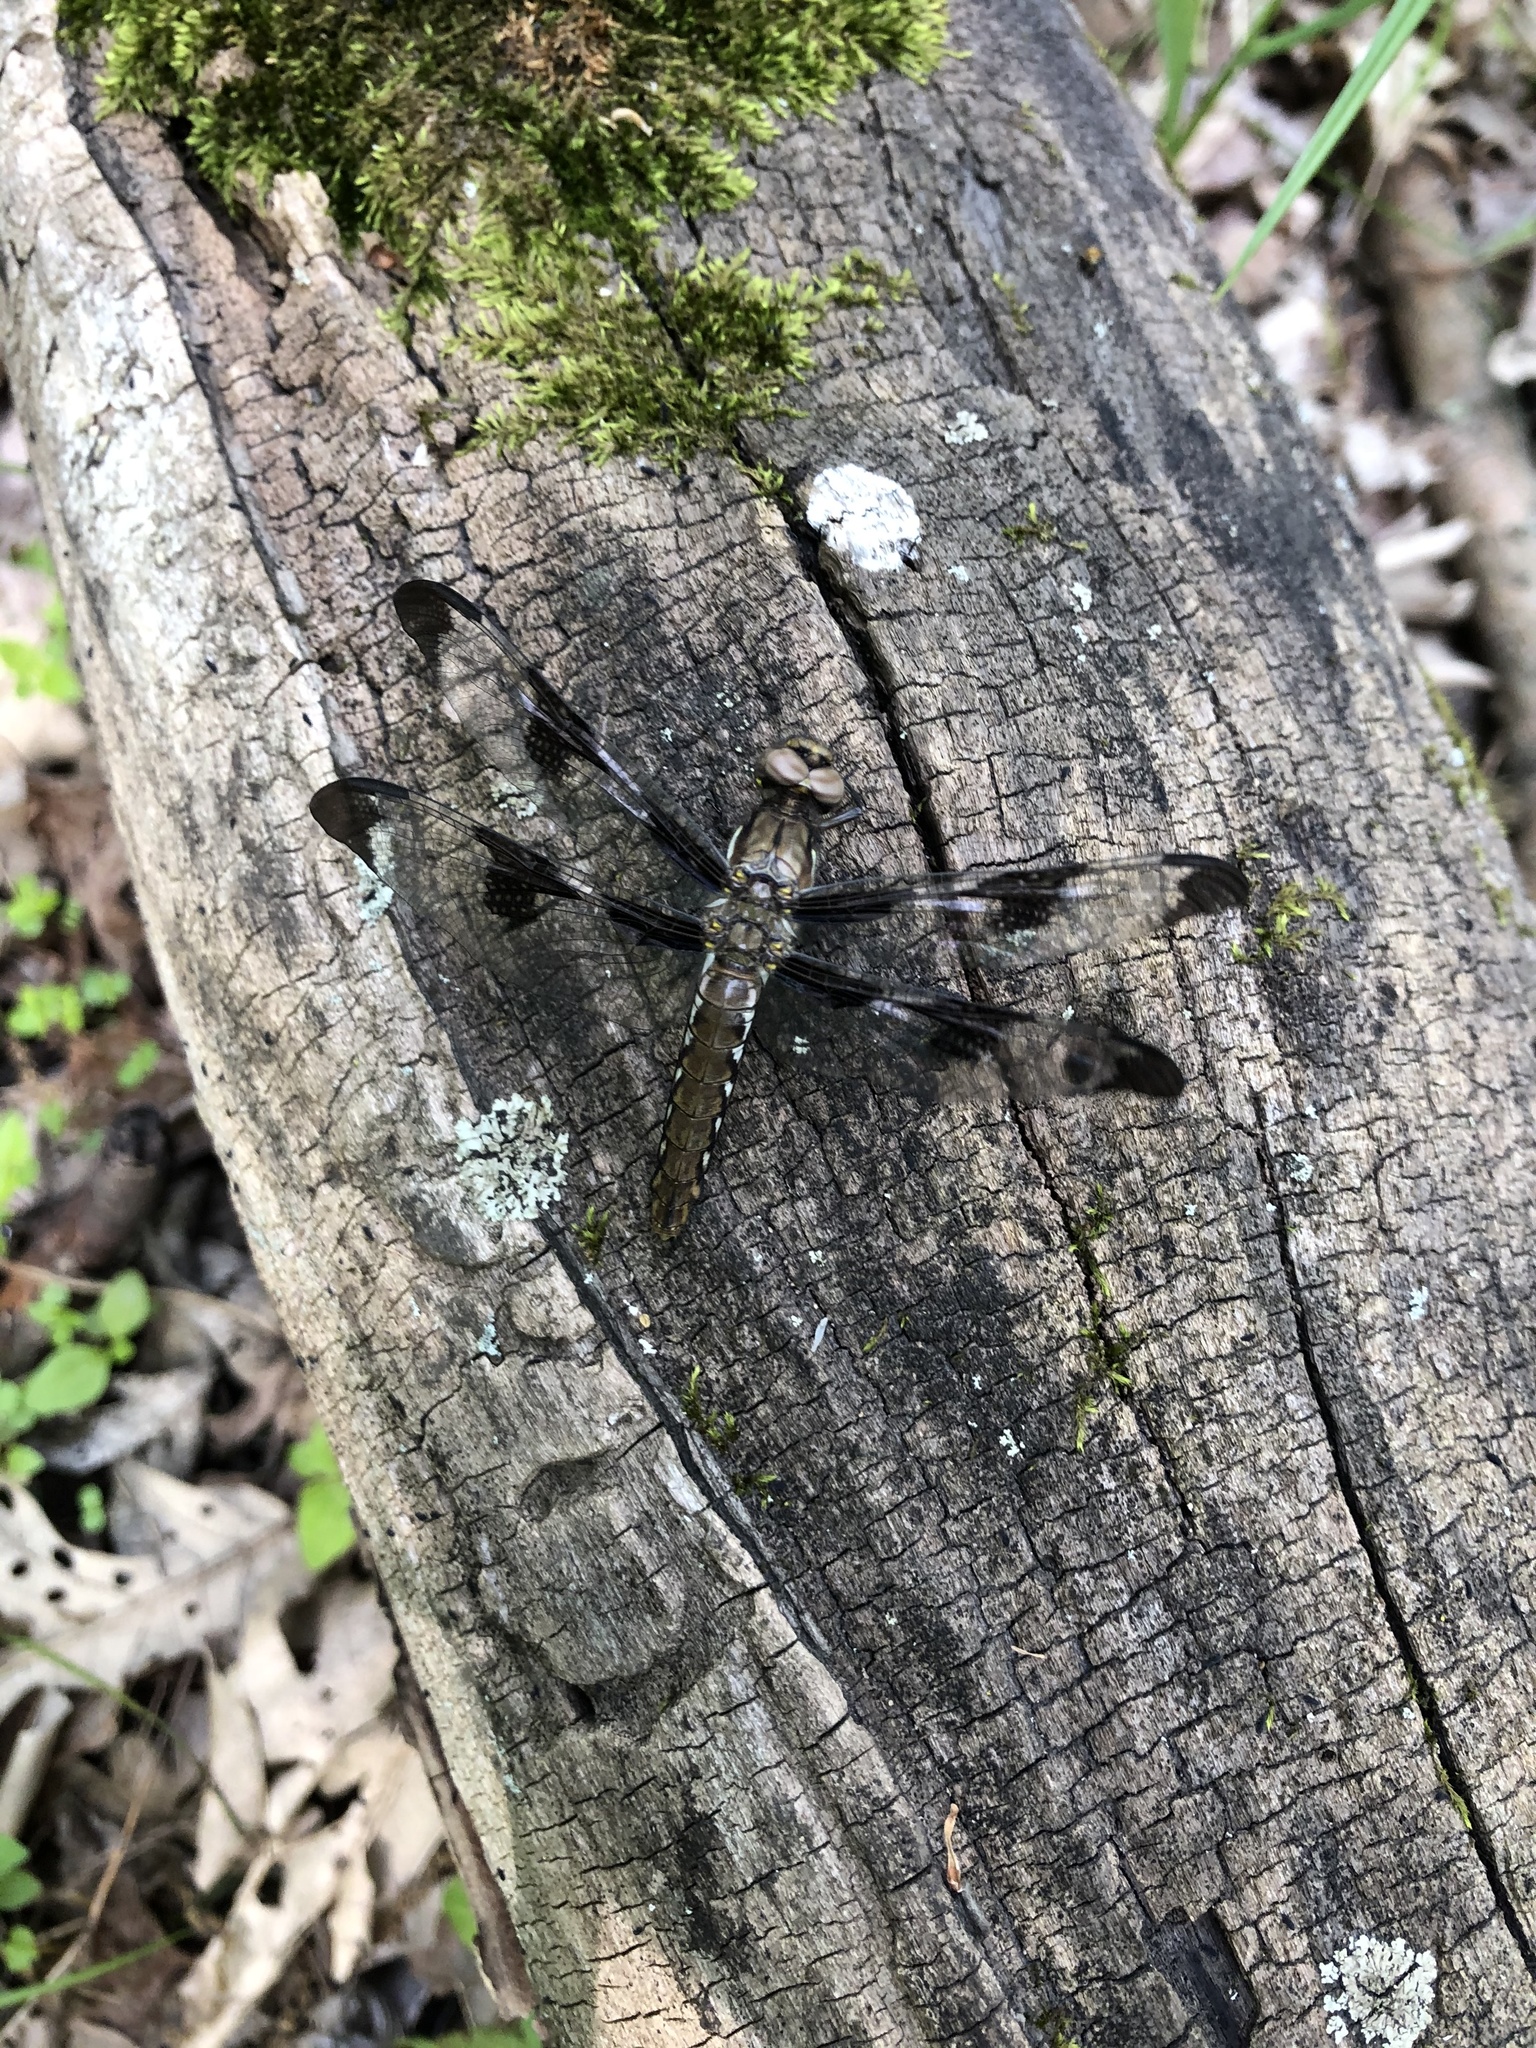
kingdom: Animalia
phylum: Arthropoda
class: Insecta
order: Odonata
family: Libellulidae
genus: Plathemis
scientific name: Plathemis lydia
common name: Common whitetail
